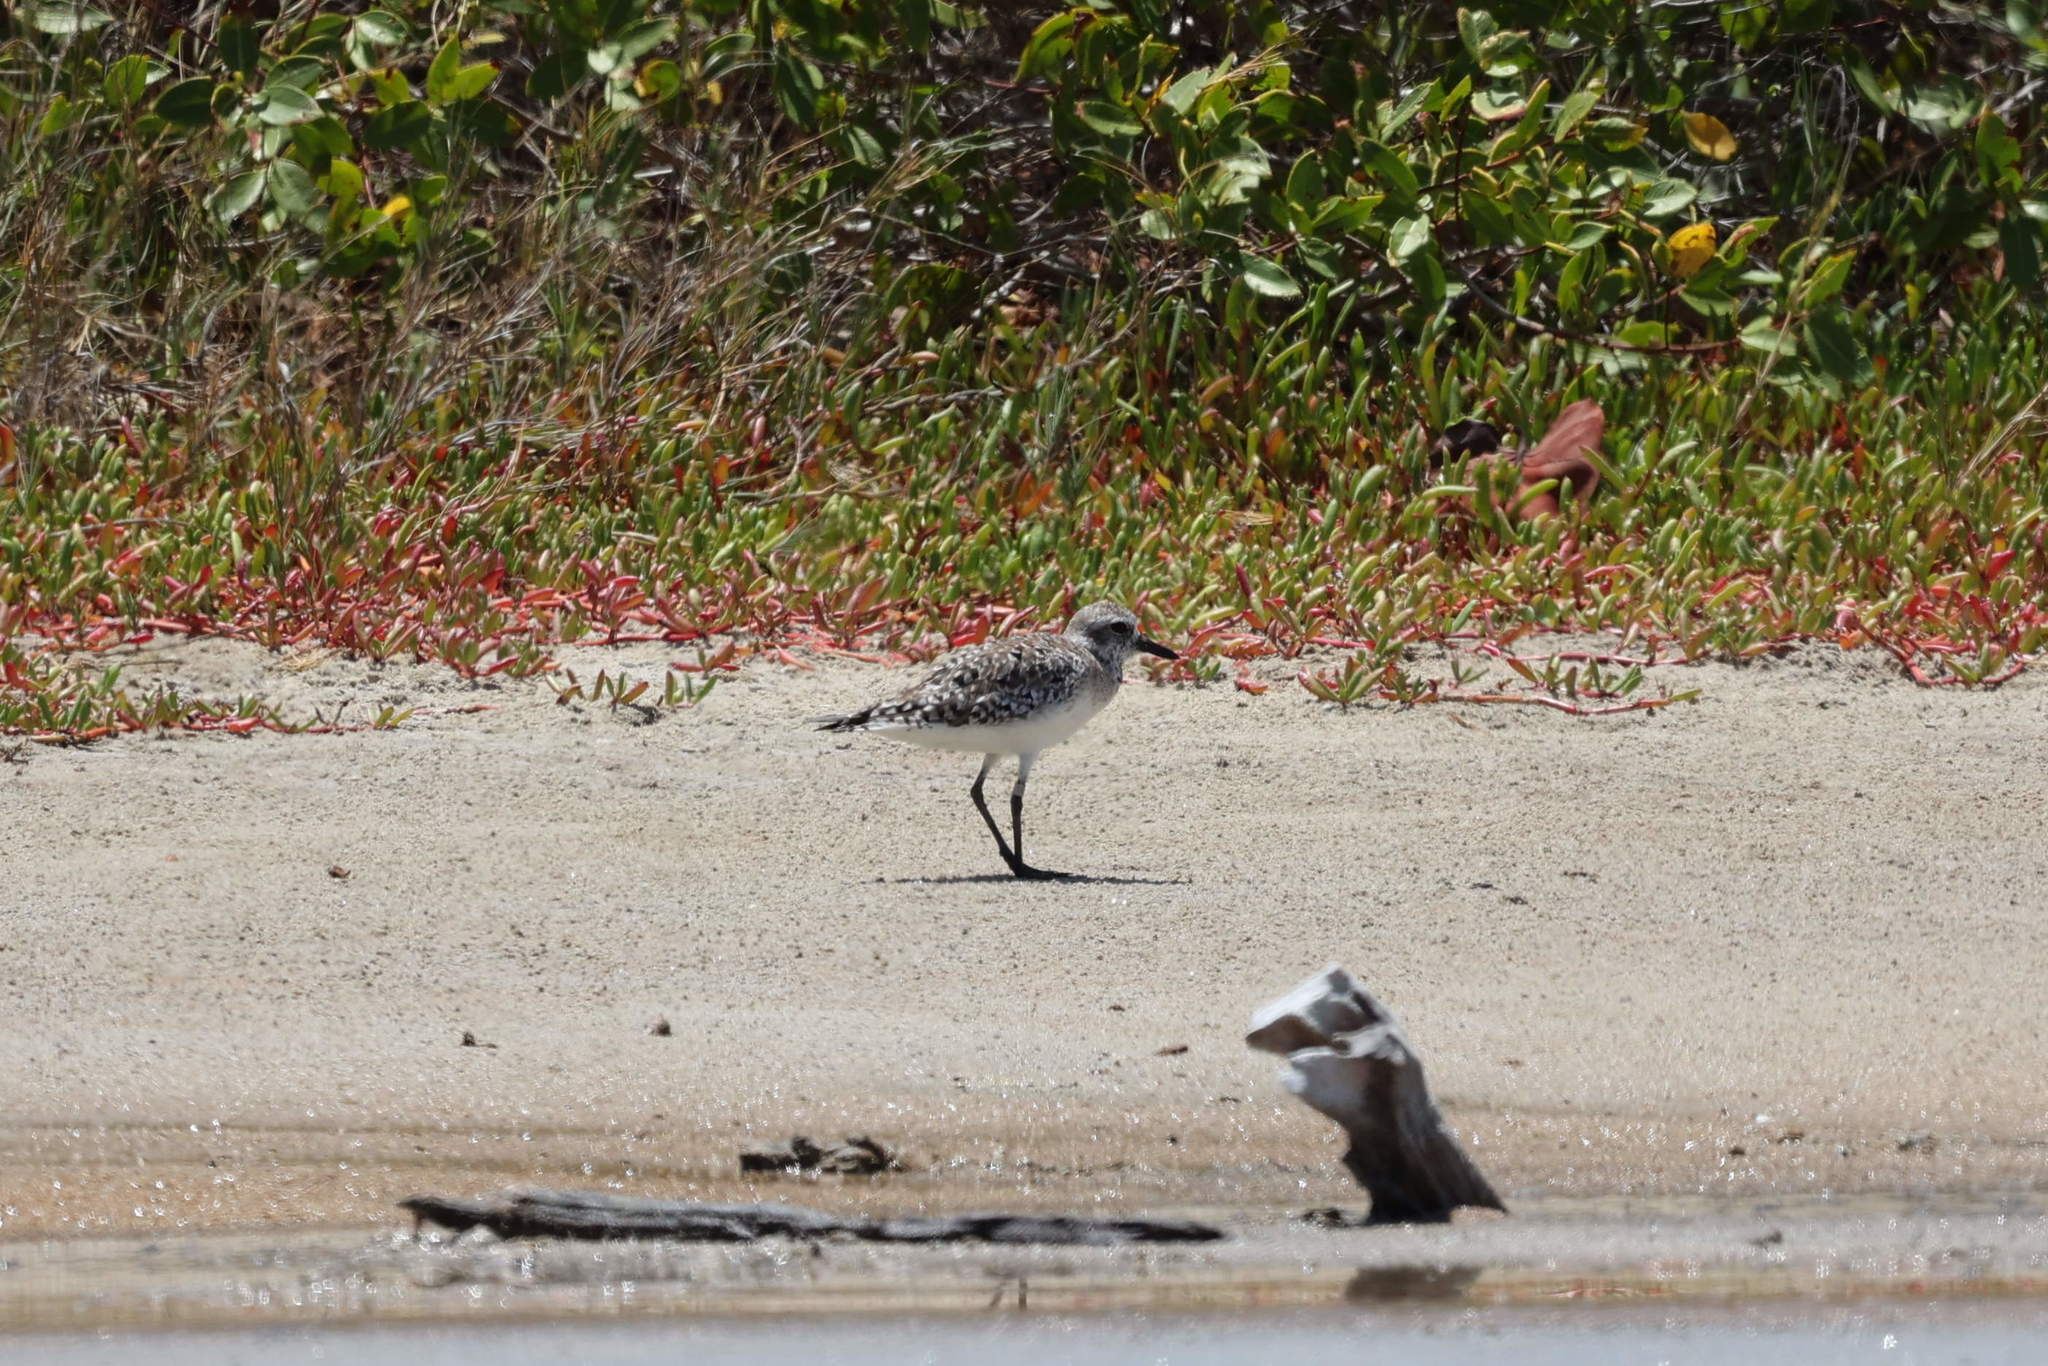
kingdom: Animalia
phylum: Chordata
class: Aves
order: Charadriiformes
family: Charadriidae
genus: Pluvialis
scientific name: Pluvialis squatarola
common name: Grey plover
